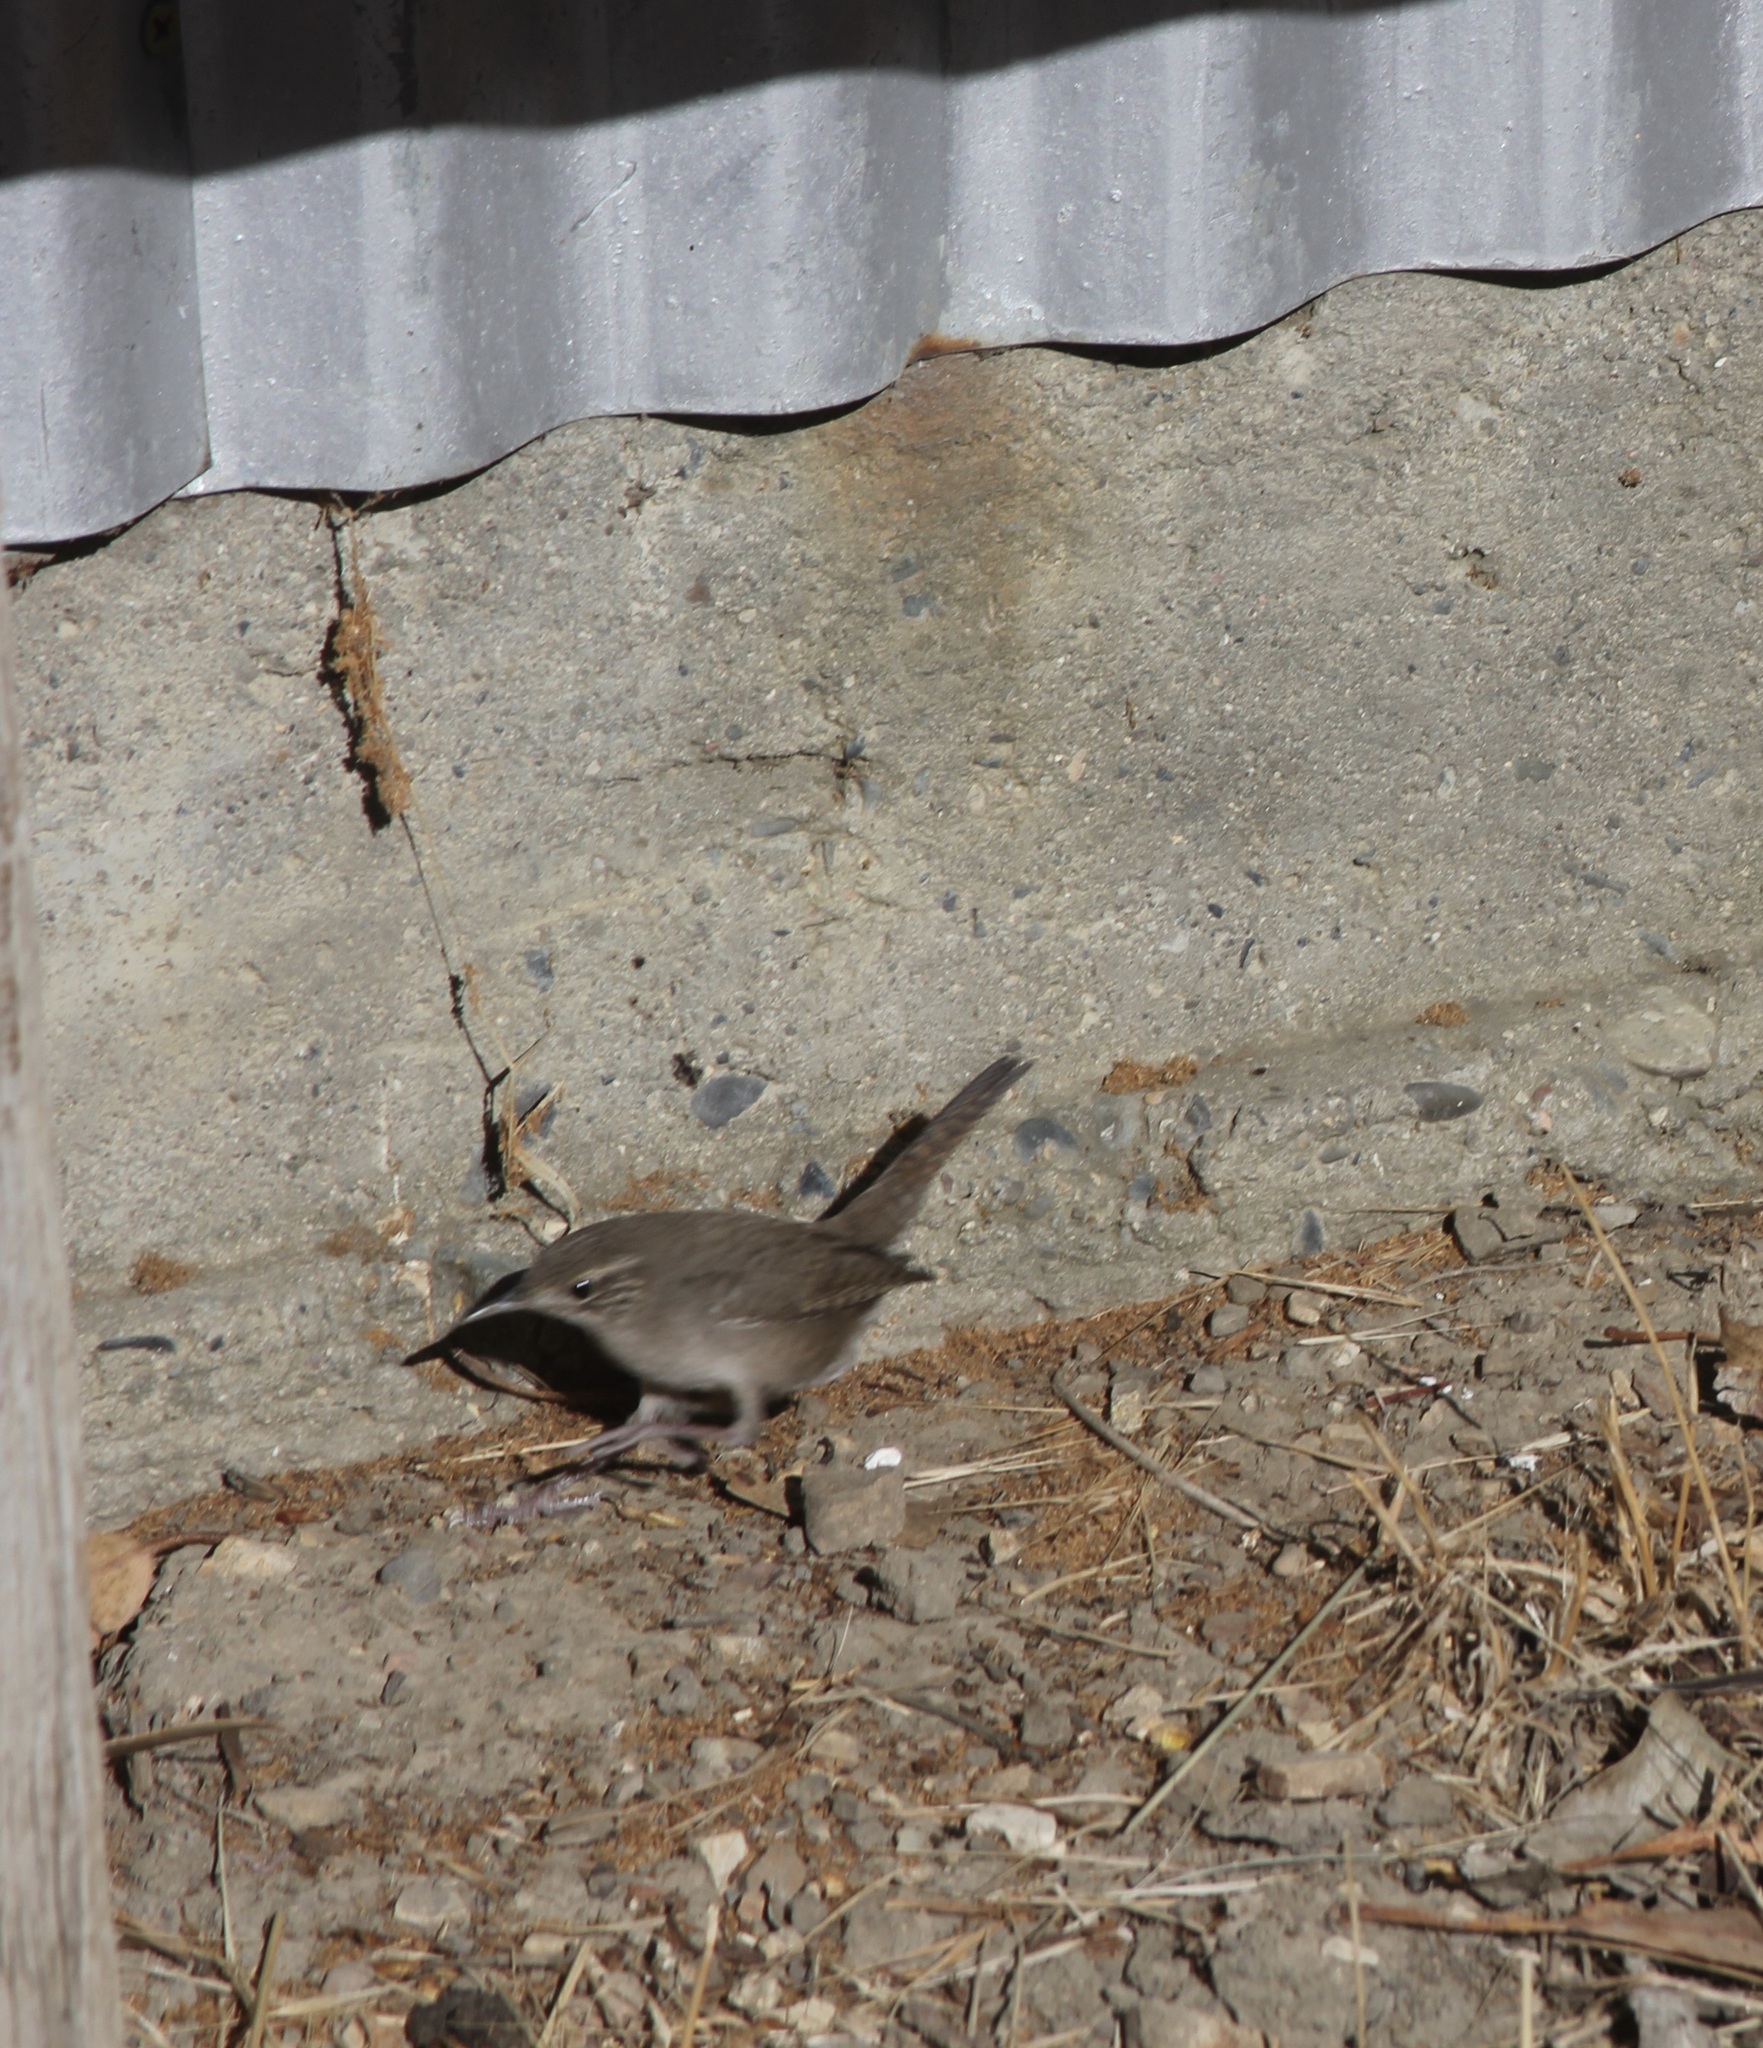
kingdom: Animalia
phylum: Chordata
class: Aves
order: Passeriformes
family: Troglodytidae
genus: Troglodytes
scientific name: Troglodytes aedon
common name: House wren
